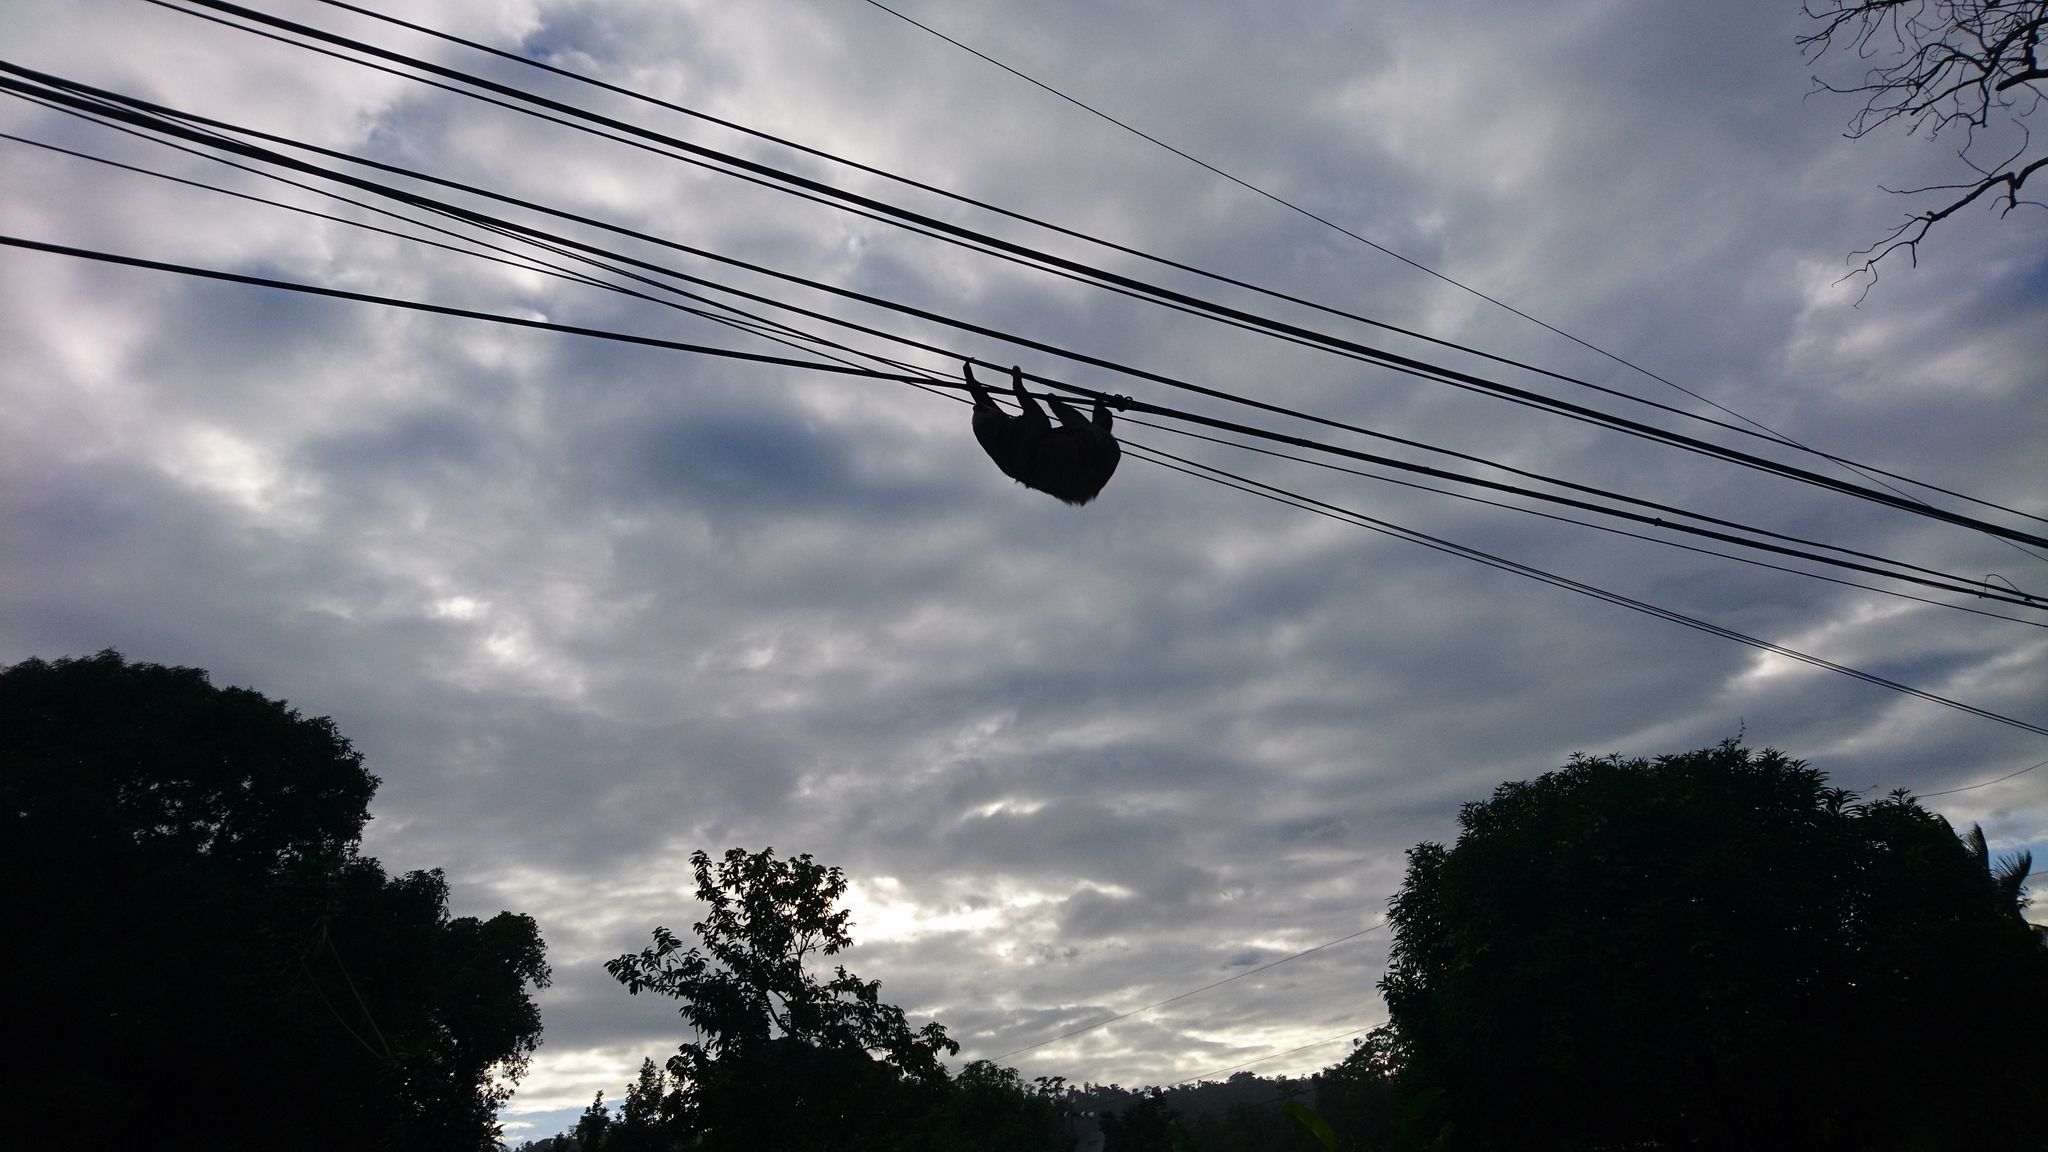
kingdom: Animalia
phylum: Chordata
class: Mammalia
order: Pilosa
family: Megalonychidae
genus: Choloepus
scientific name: Choloepus hoffmanni
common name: Hoffmann's two-toed sloth
